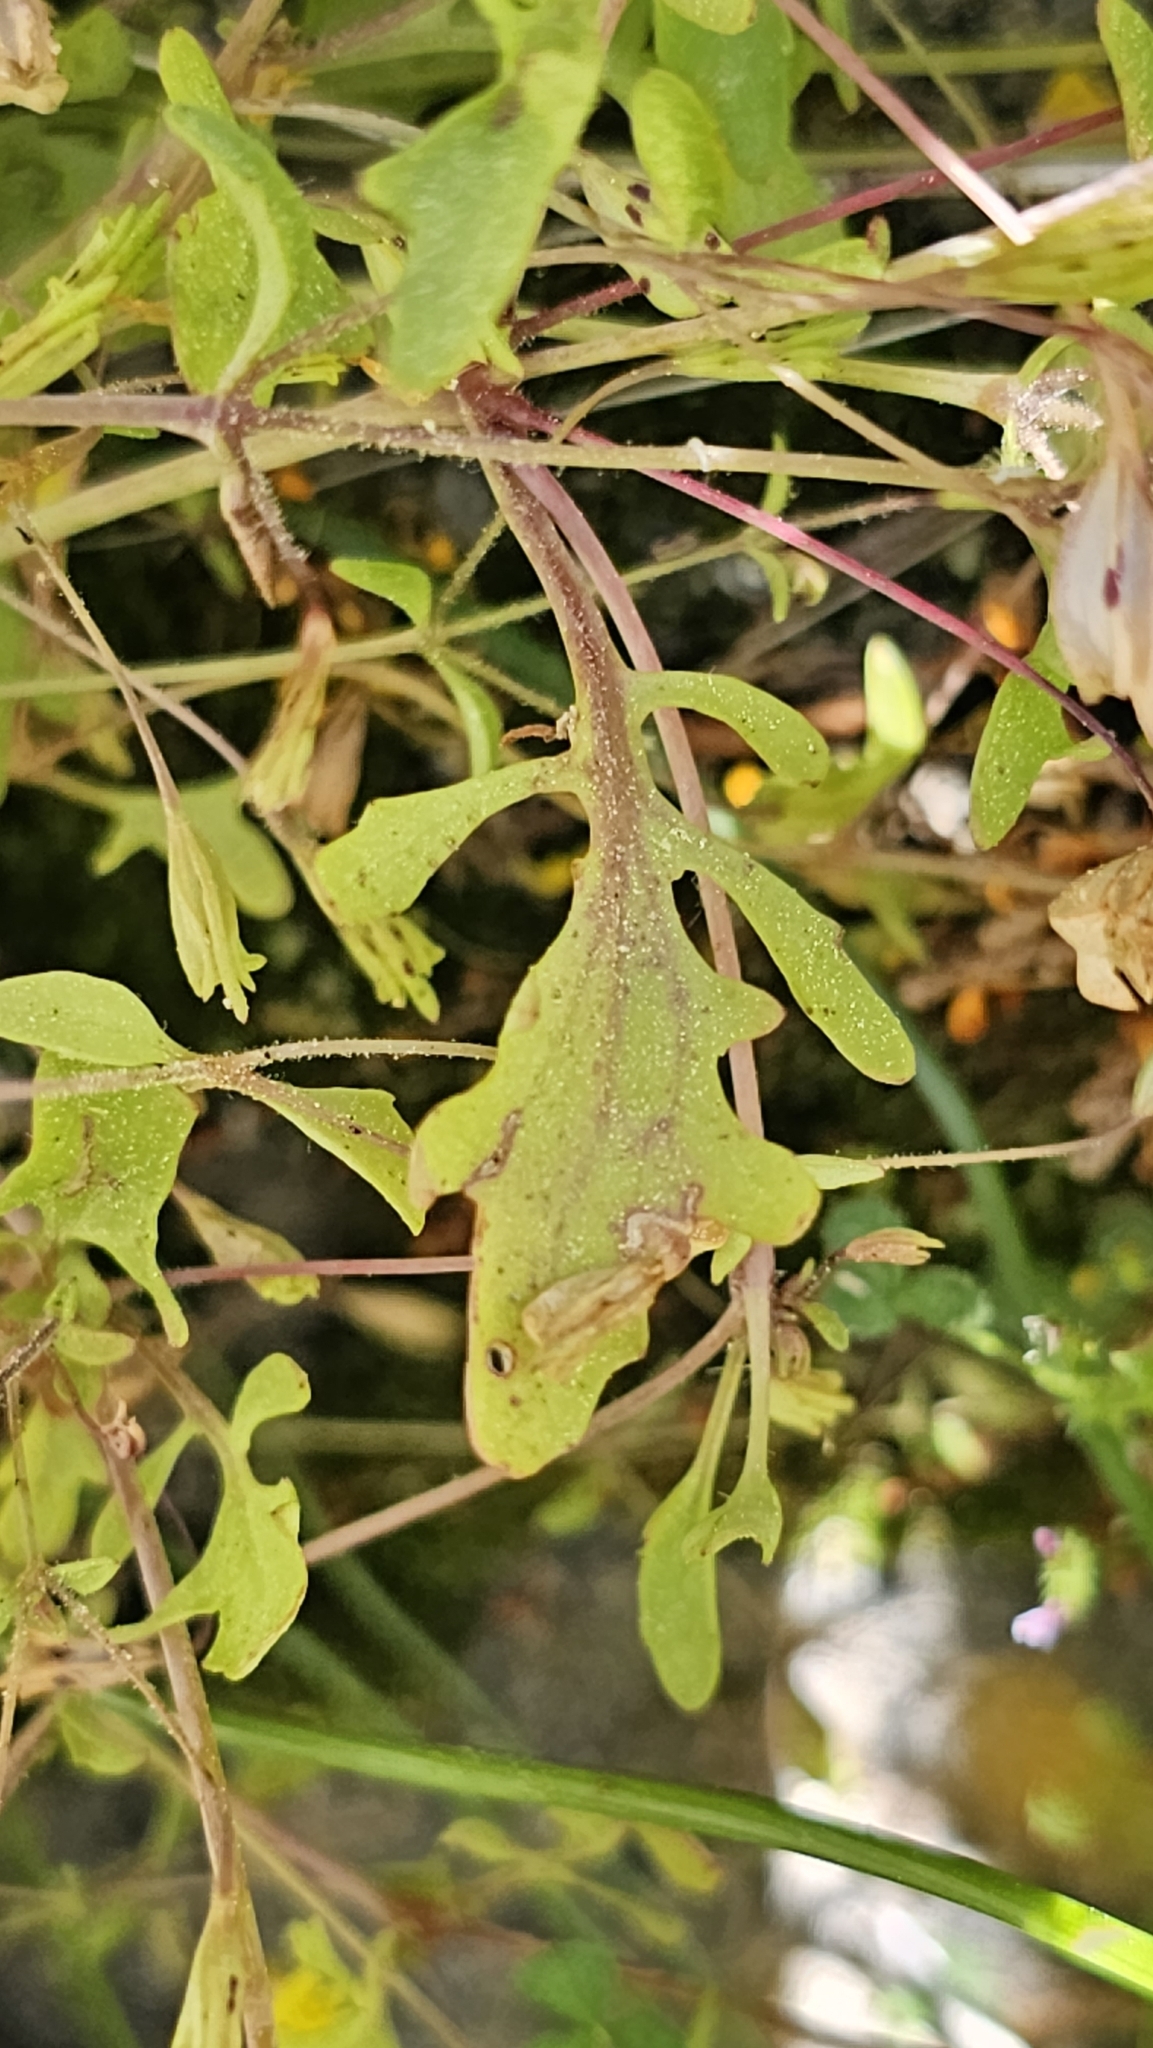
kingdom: Plantae
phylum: Tracheophyta
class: Magnoliopsida
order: Lamiales
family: Phrymaceae
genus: Erythranthe
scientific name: Erythranthe laciniata
